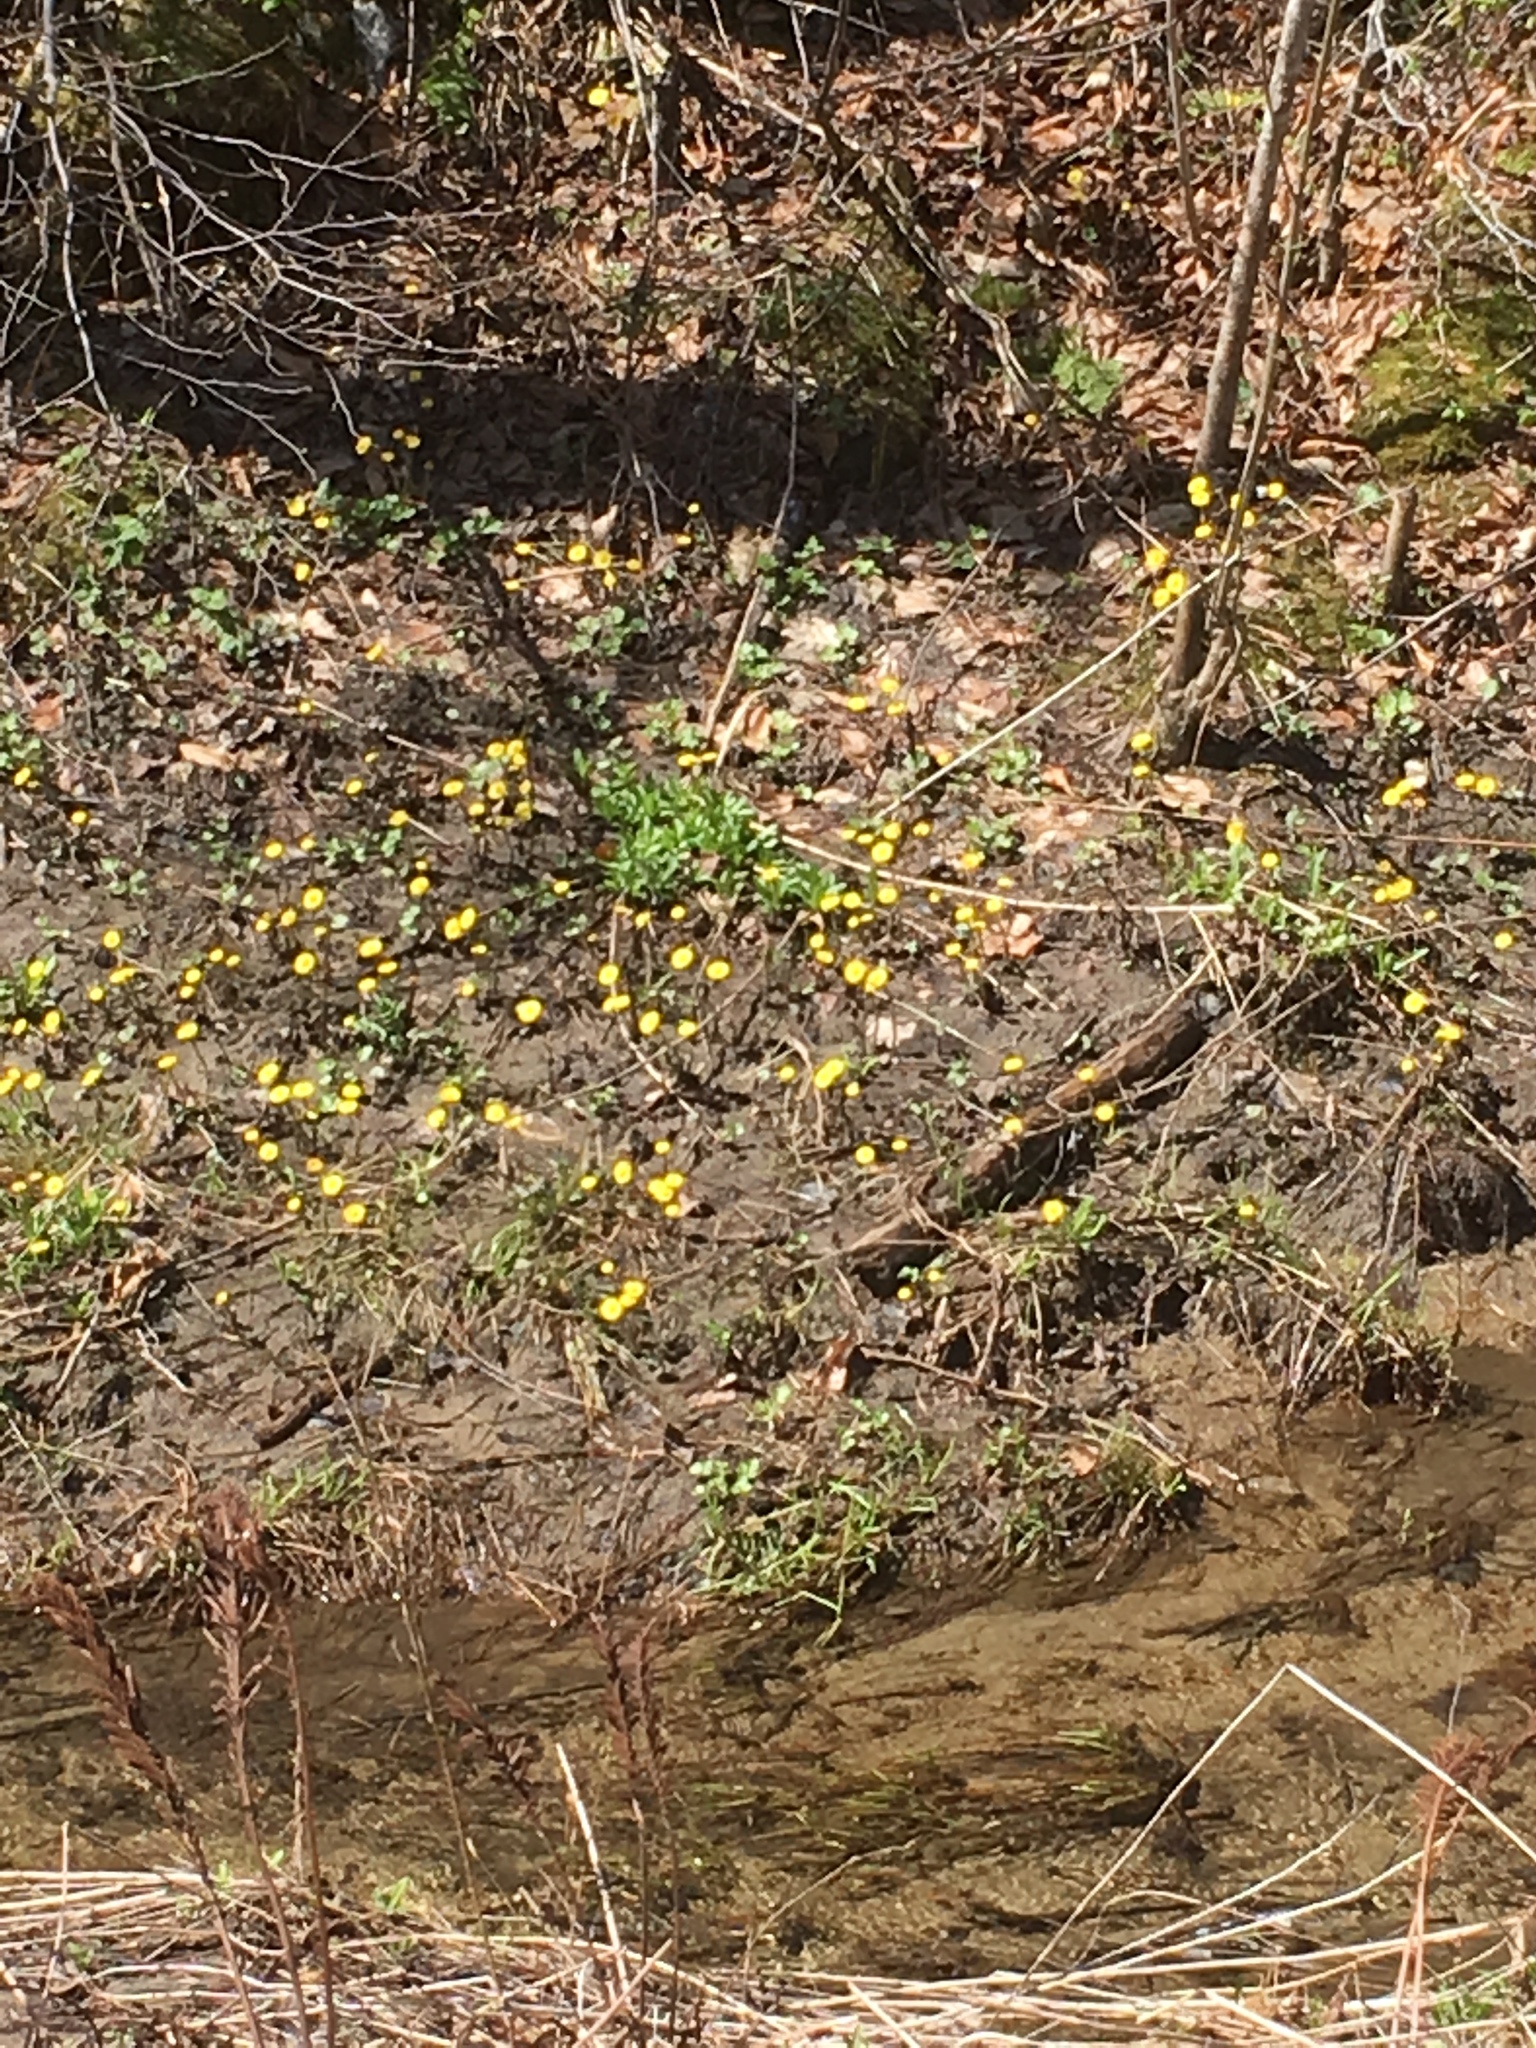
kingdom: Plantae
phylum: Tracheophyta
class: Magnoliopsida
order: Asterales
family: Asteraceae
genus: Tussilago
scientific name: Tussilago farfara
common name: Coltsfoot
